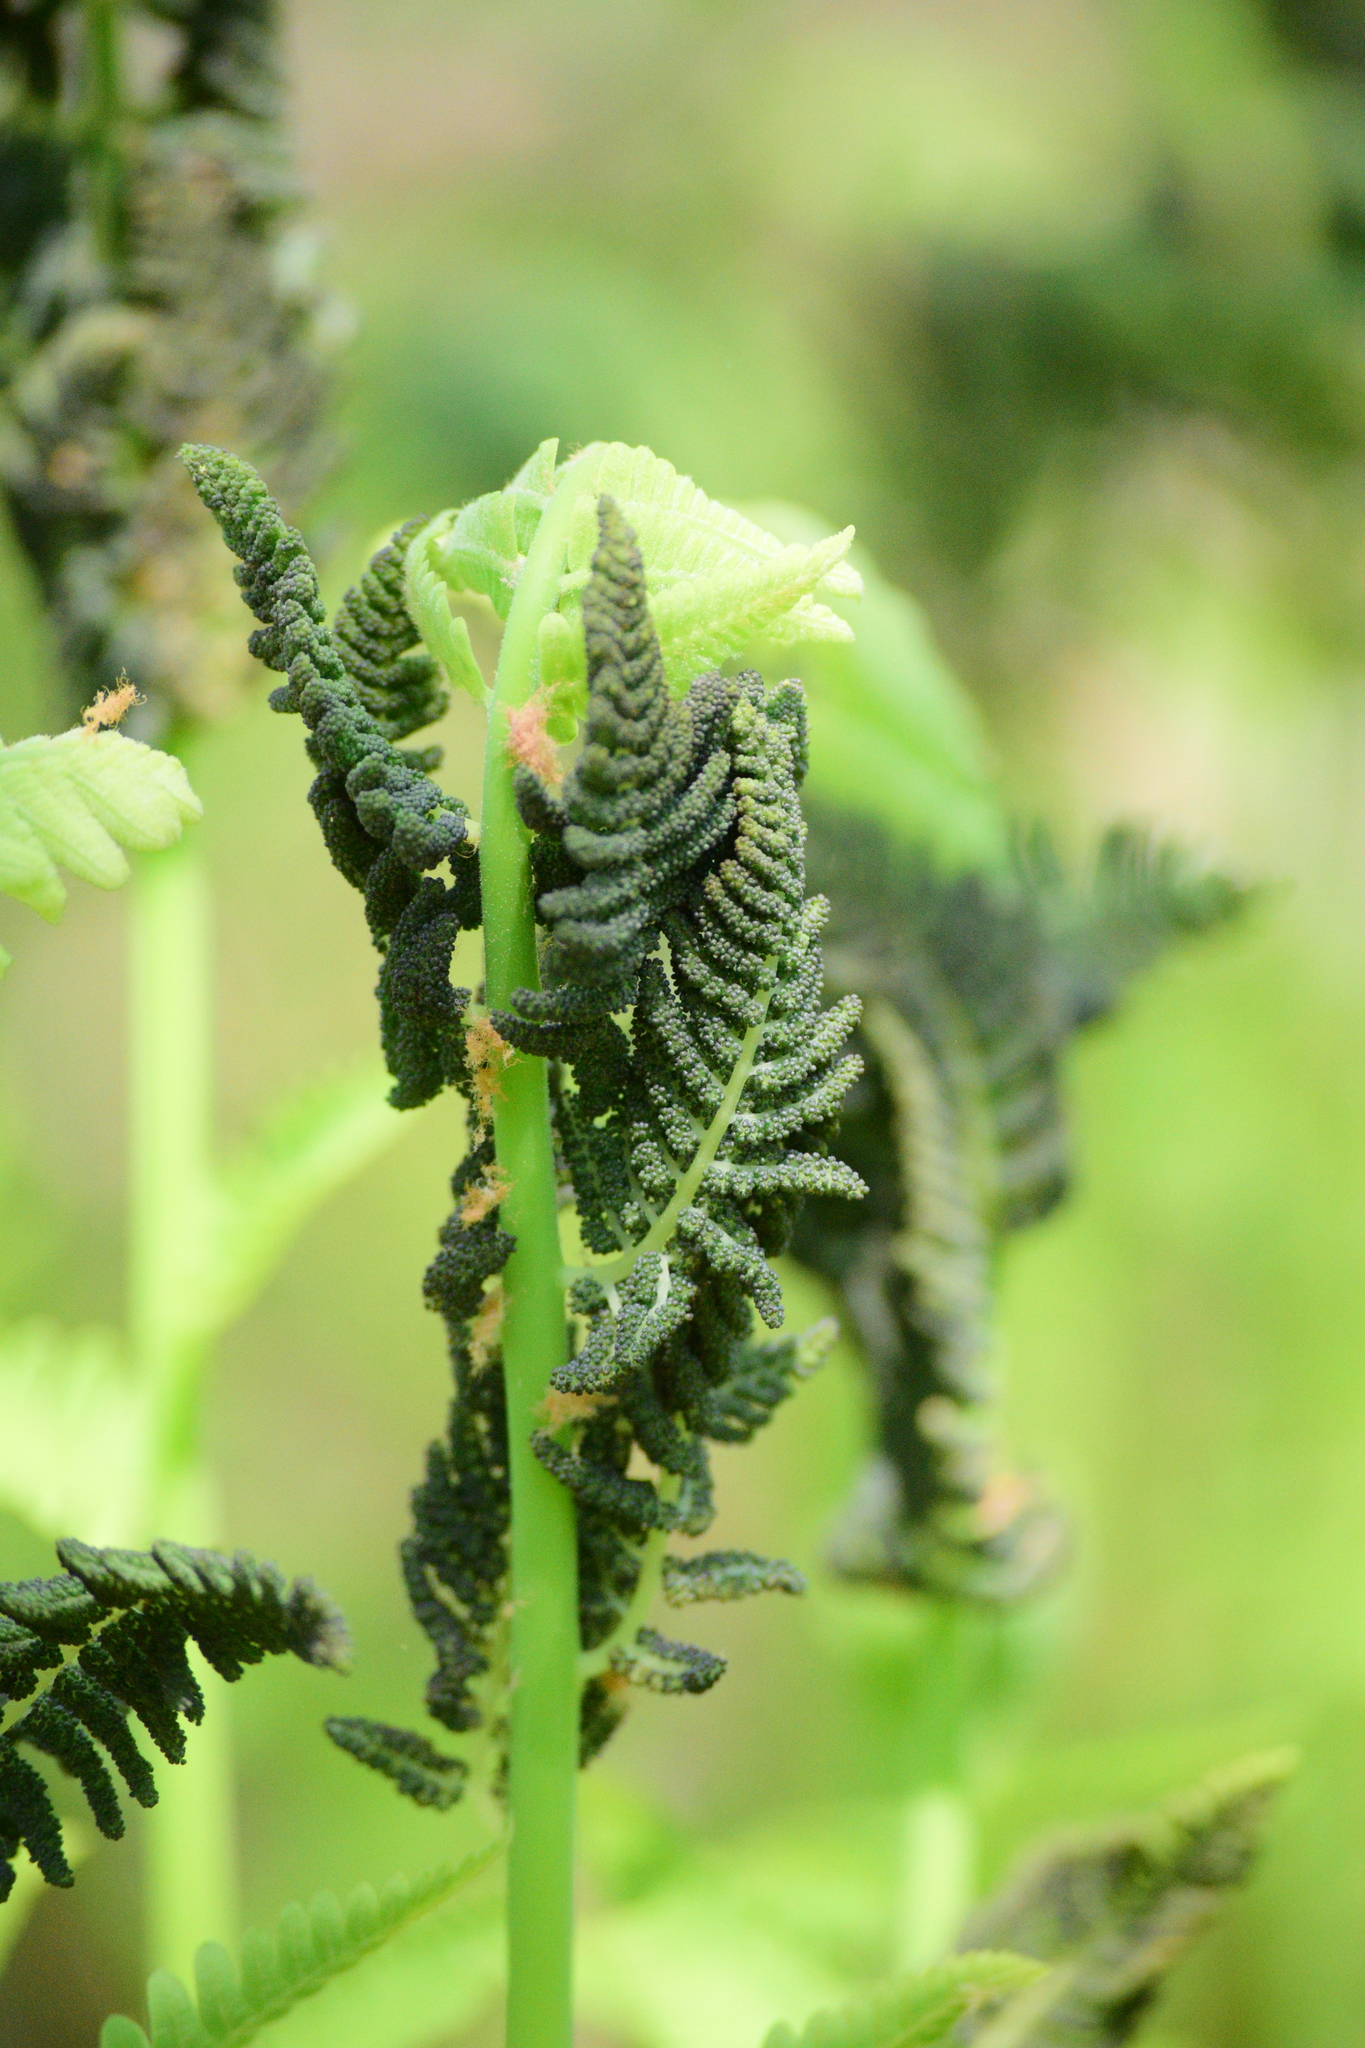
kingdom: Plantae
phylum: Tracheophyta
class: Polypodiopsida
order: Osmundales
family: Osmundaceae
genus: Claytosmunda
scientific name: Claytosmunda claytoniana
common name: Clayton's fern
